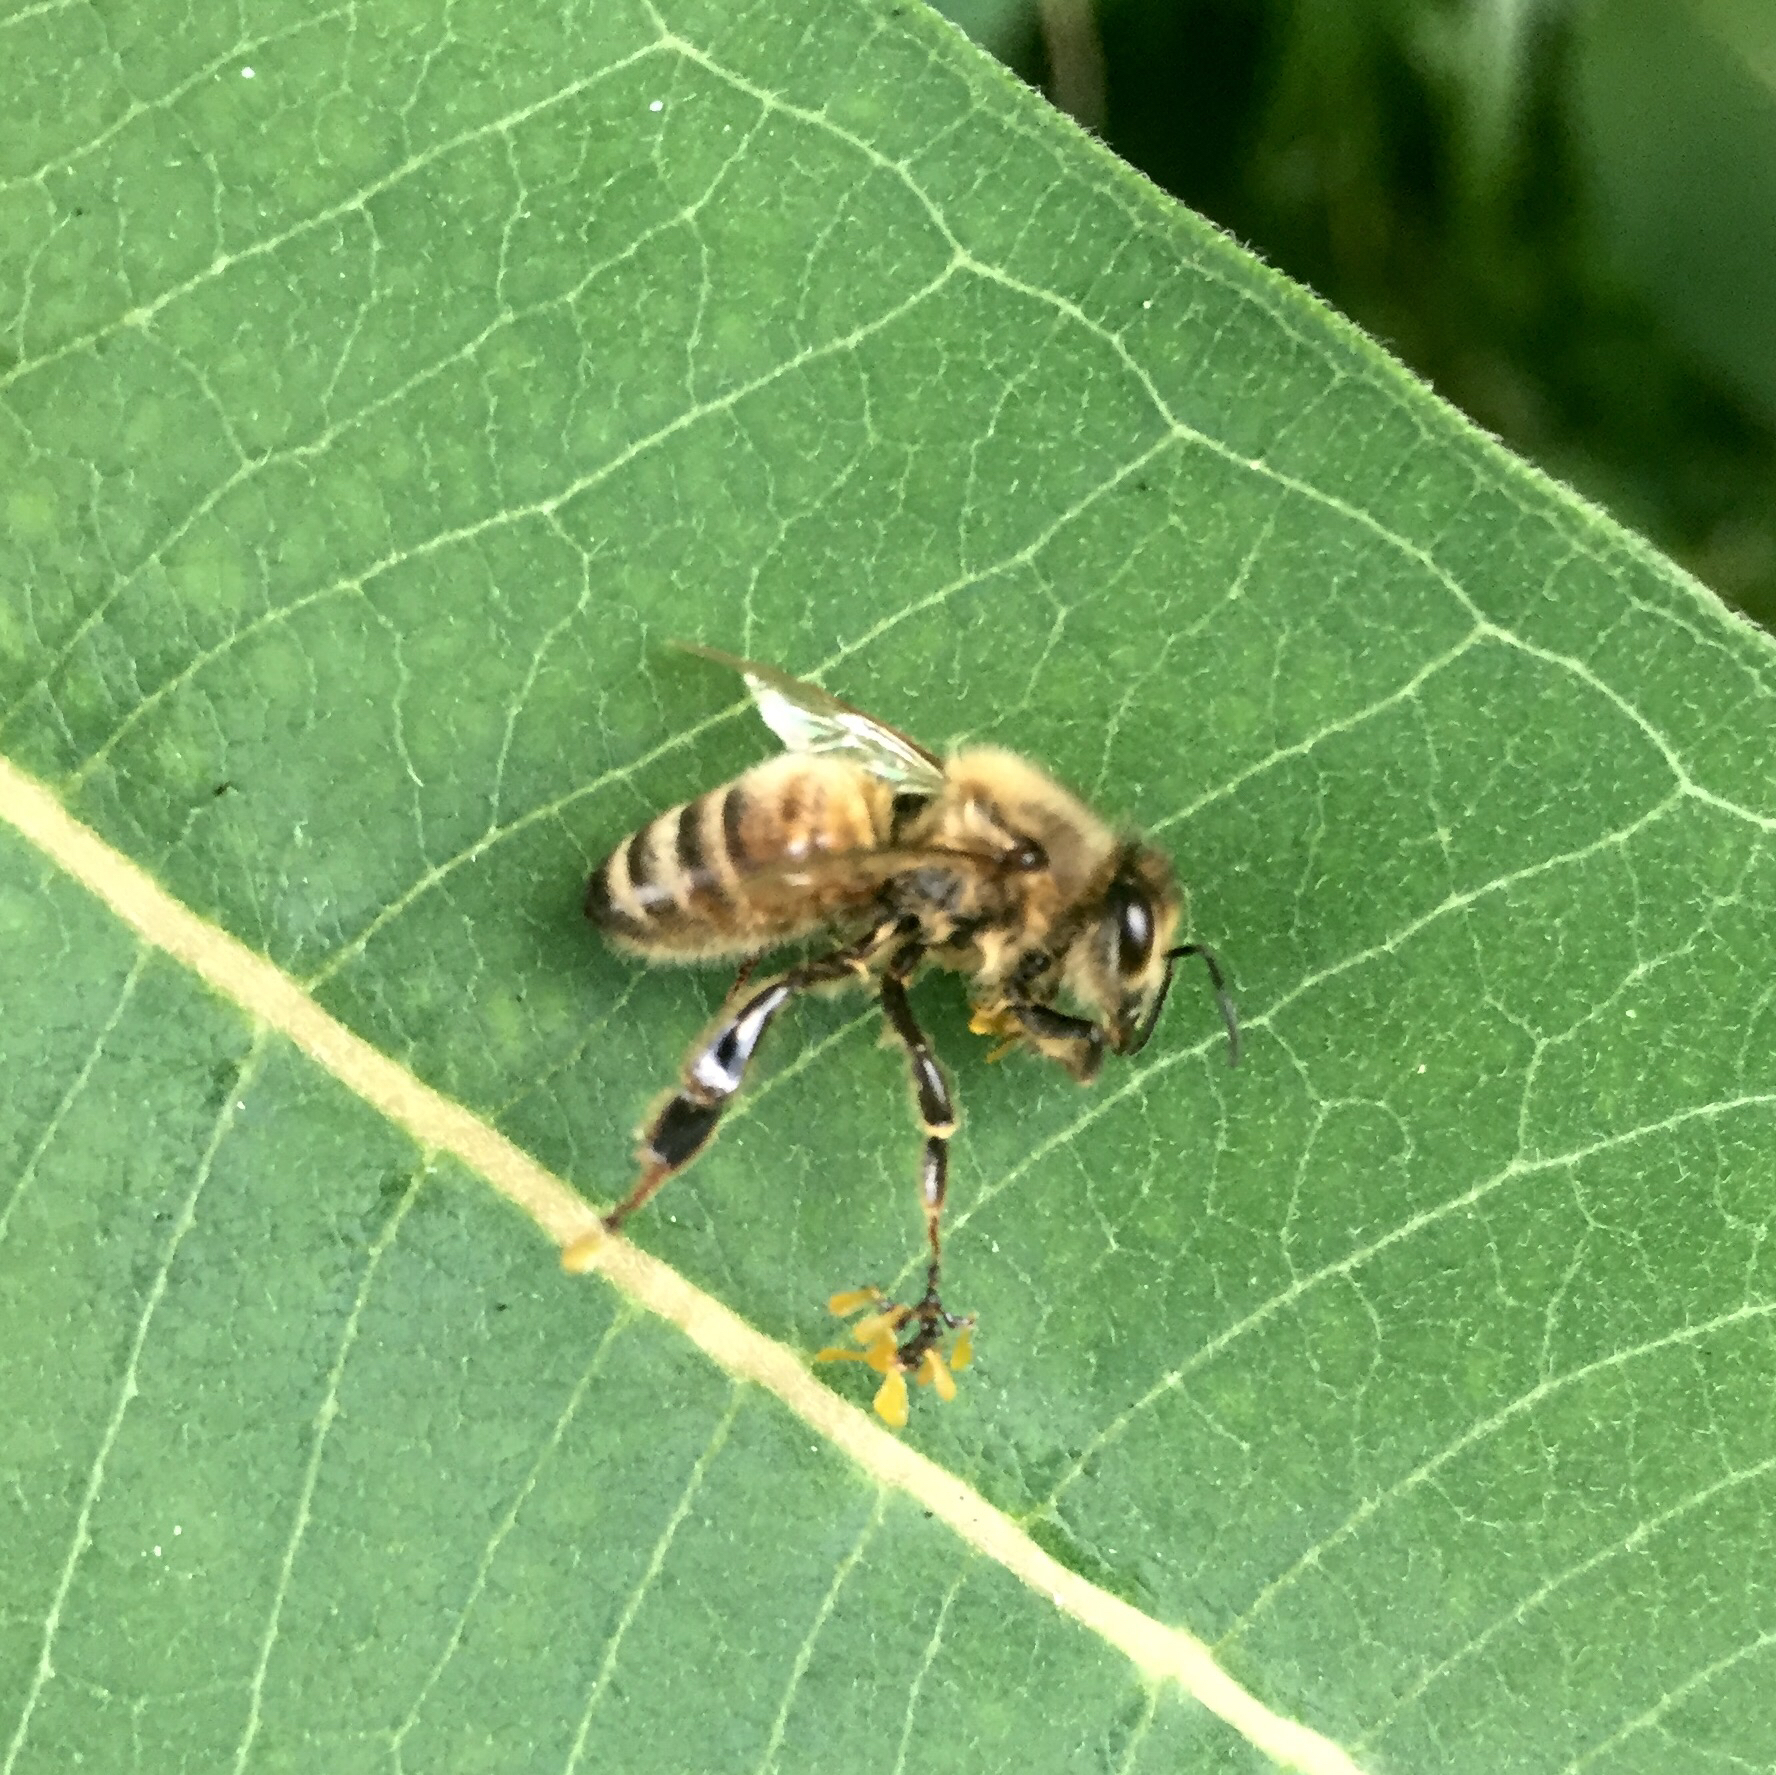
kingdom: Animalia
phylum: Arthropoda
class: Insecta
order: Hymenoptera
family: Apidae
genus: Apis
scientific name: Apis mellifera
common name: Honey bee
